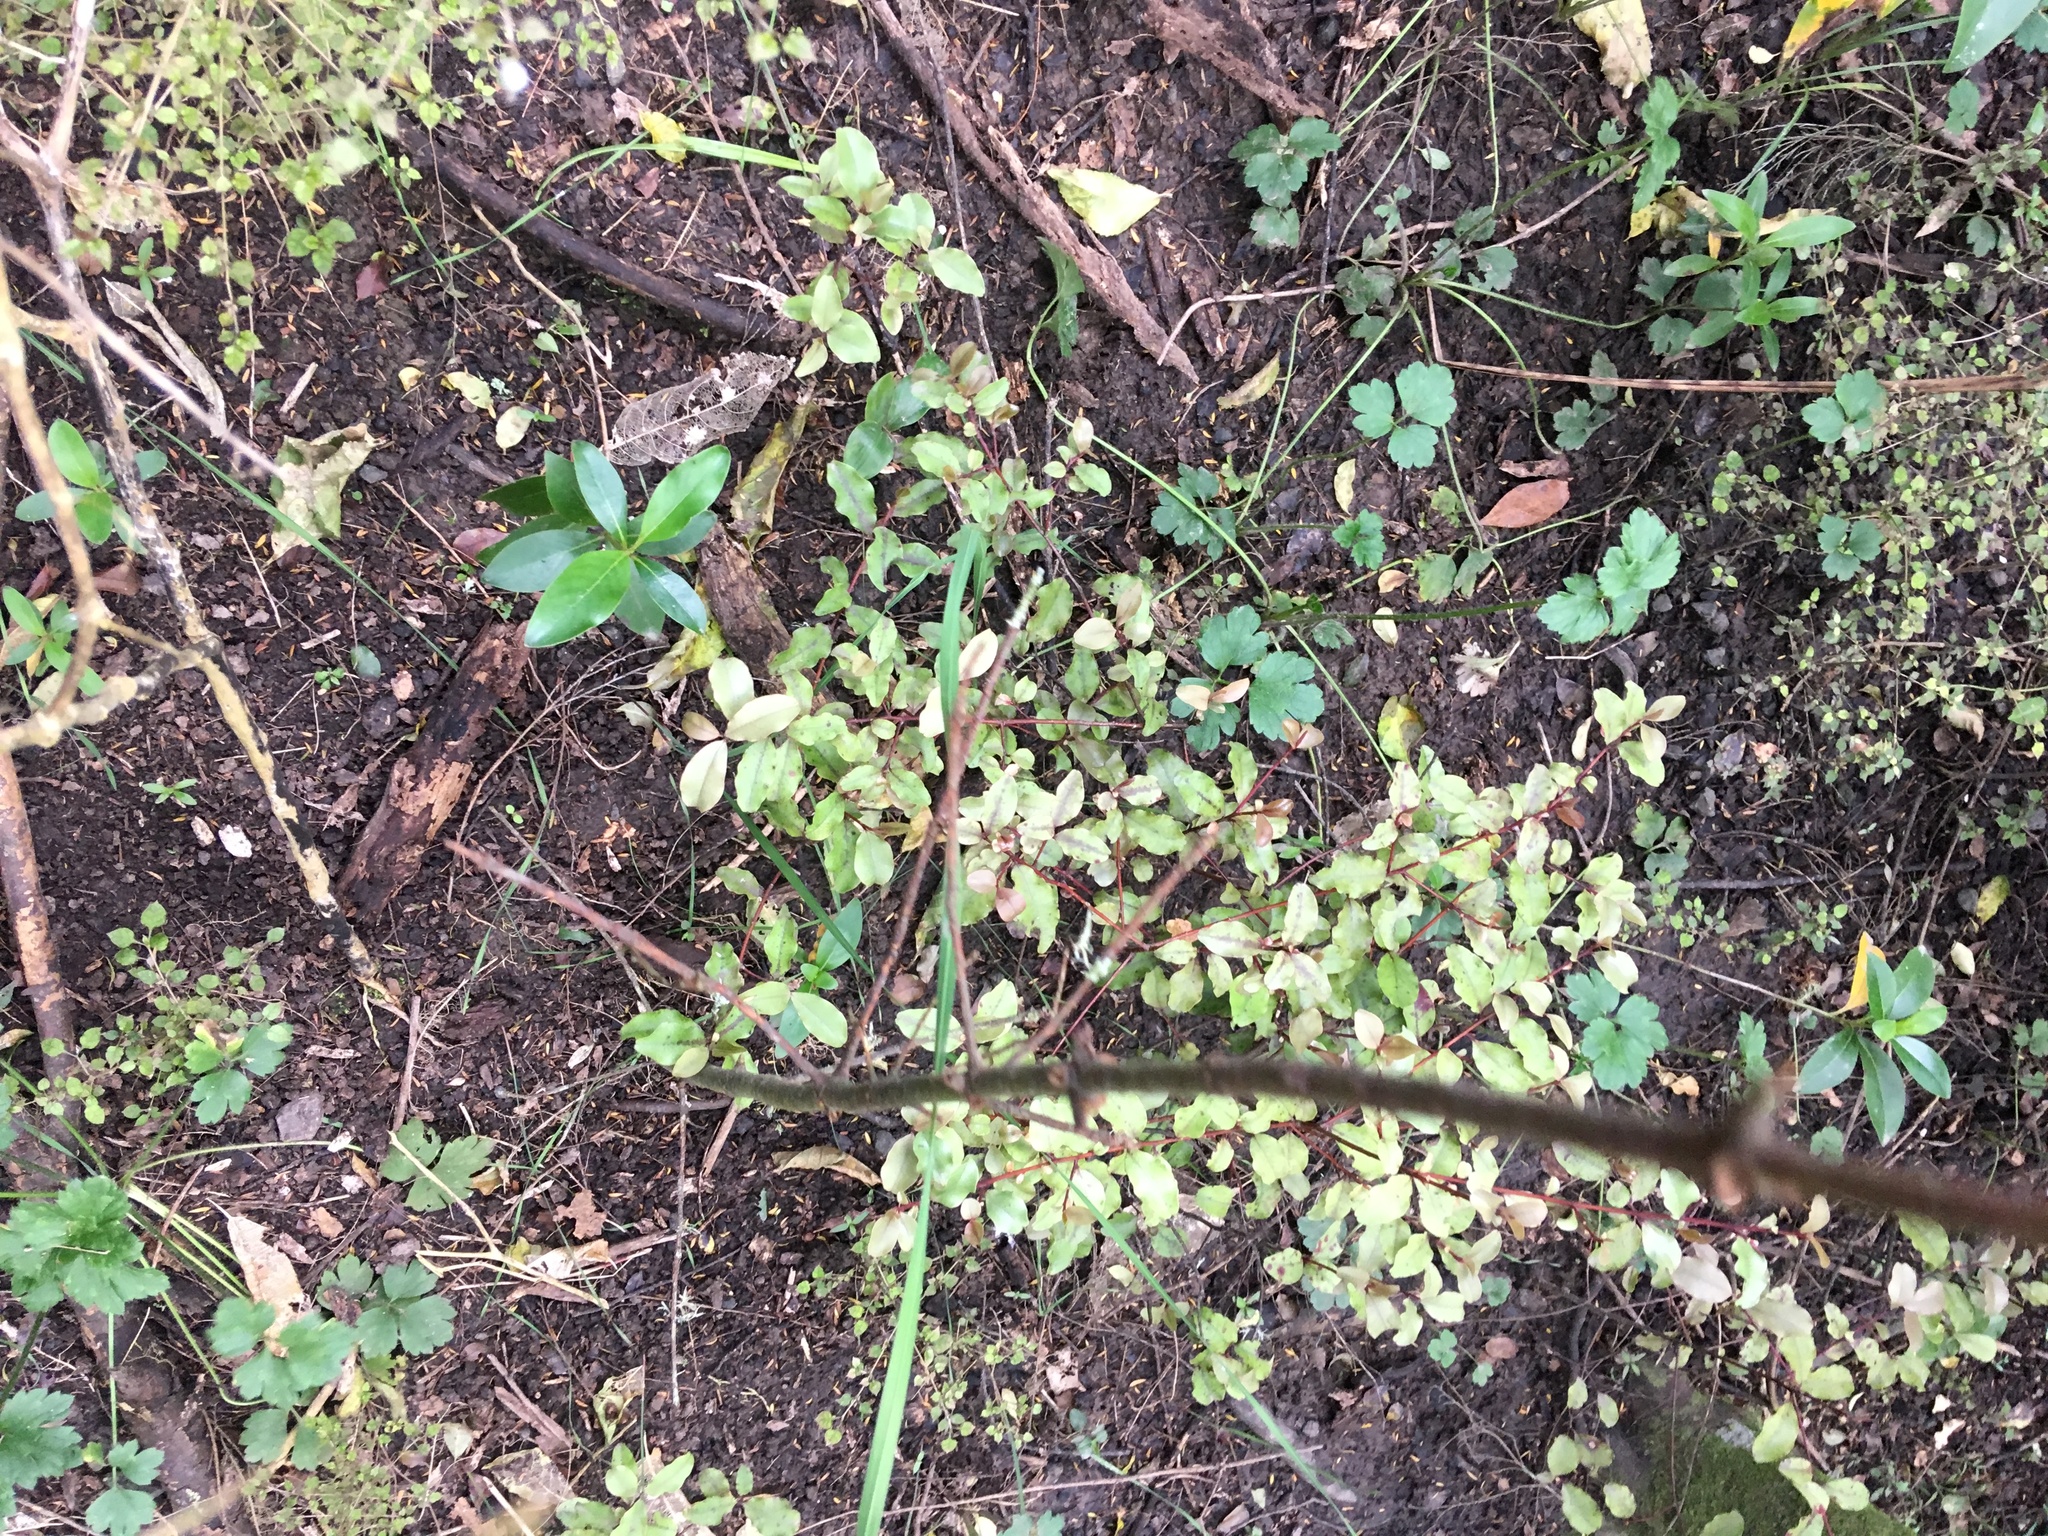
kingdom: Plantae
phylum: Tracheophyta
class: Magnoliopsida
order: Ericales
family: Primulaceae
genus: Myrsine
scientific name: Myrsine australis
